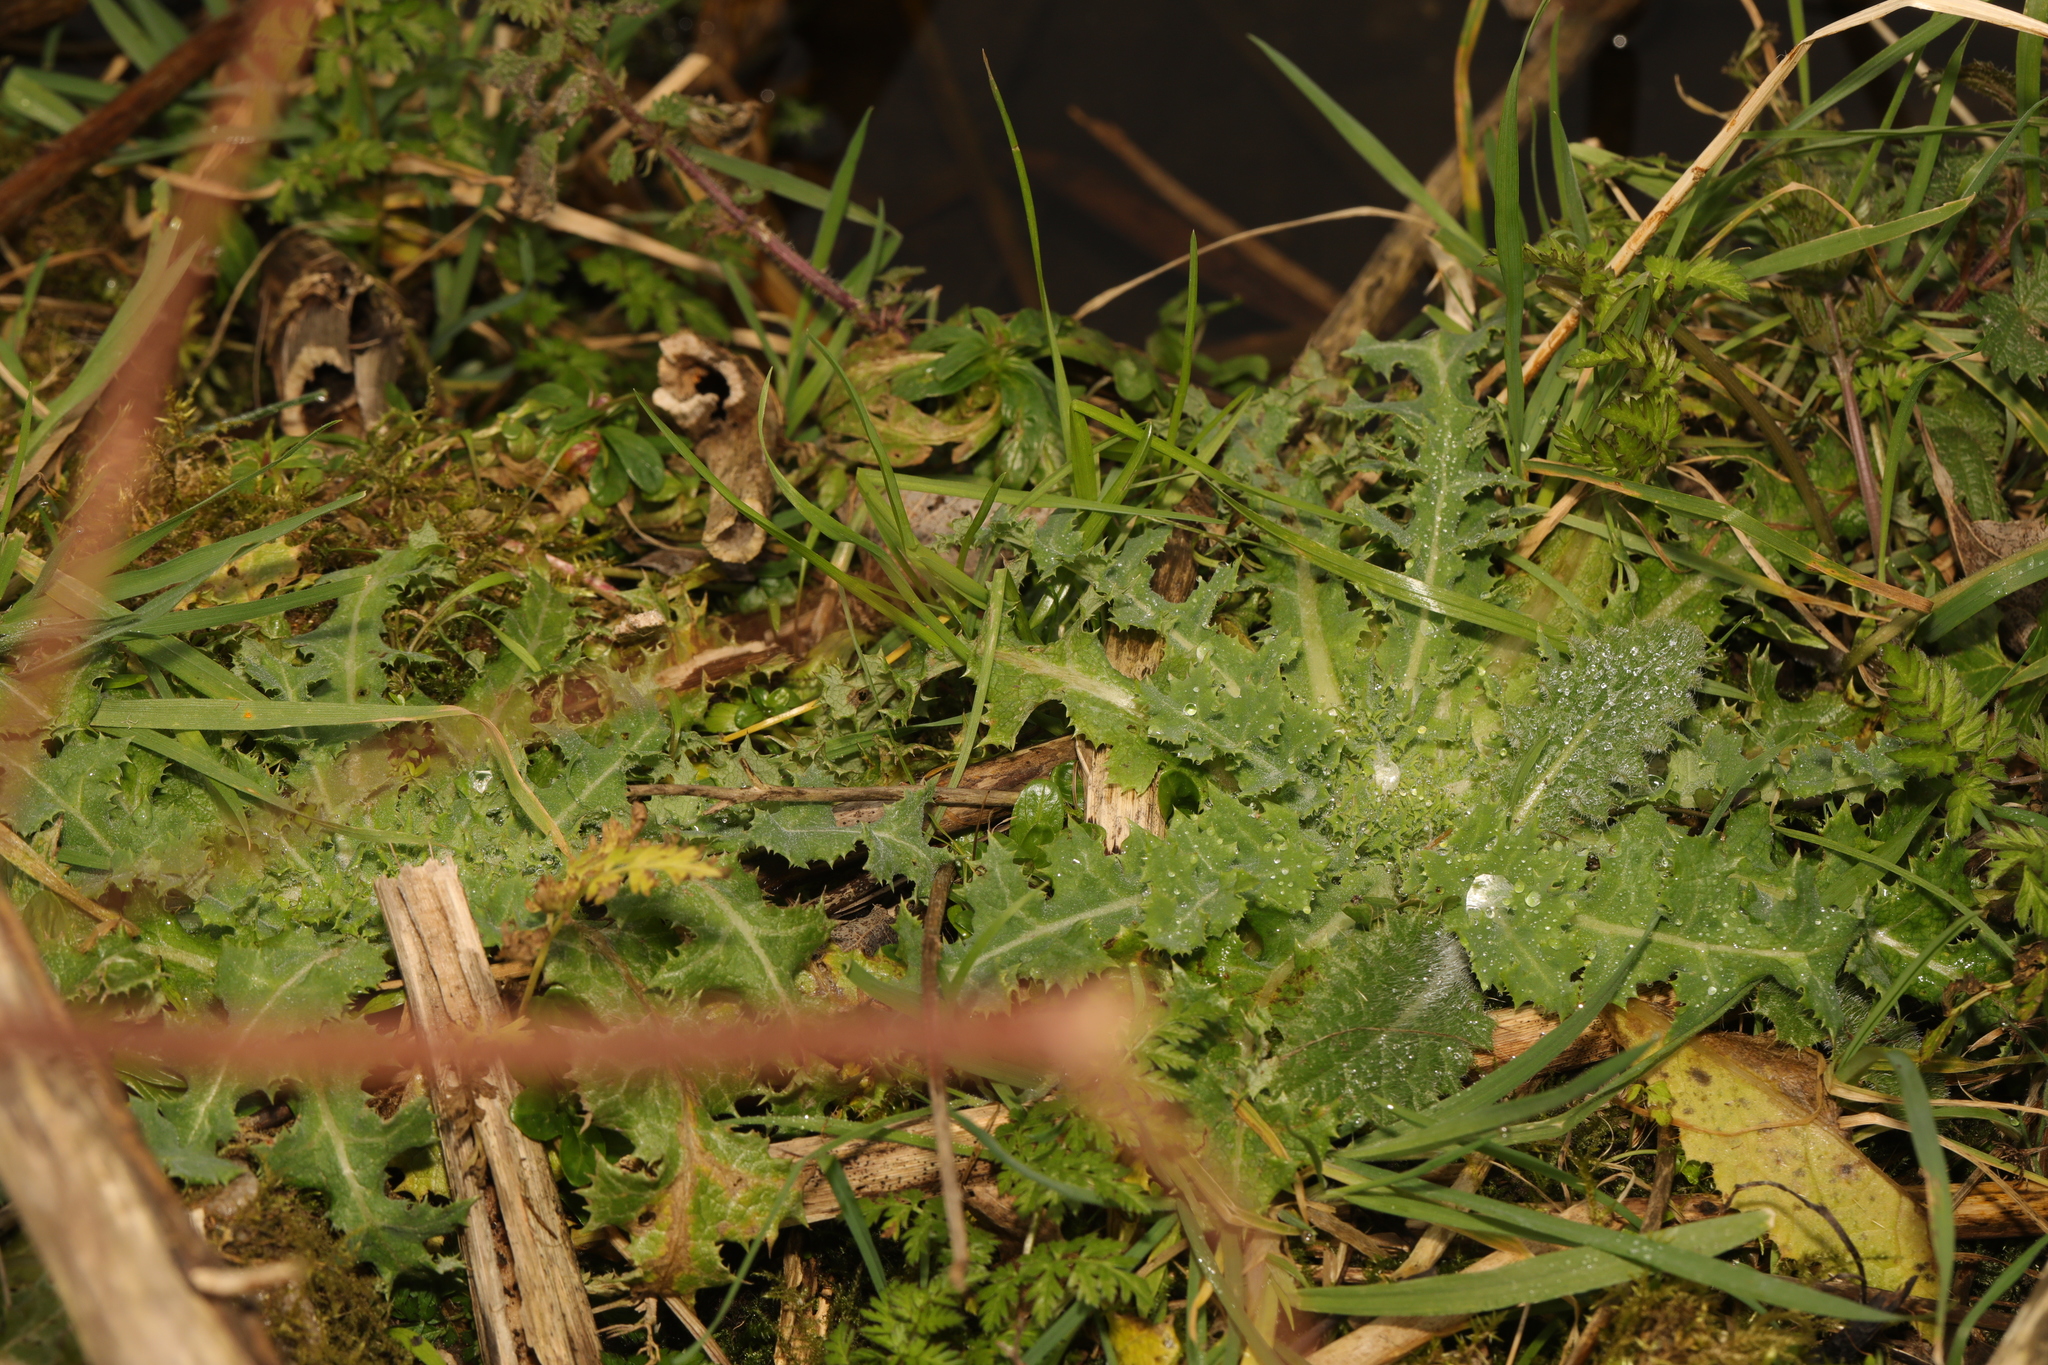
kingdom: Plantae
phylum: Tracheophyta
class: Magnoliopsida
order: Asterales
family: Asteraceae
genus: Sonchus
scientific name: Sonchus asper
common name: Prickly sow-thistle
